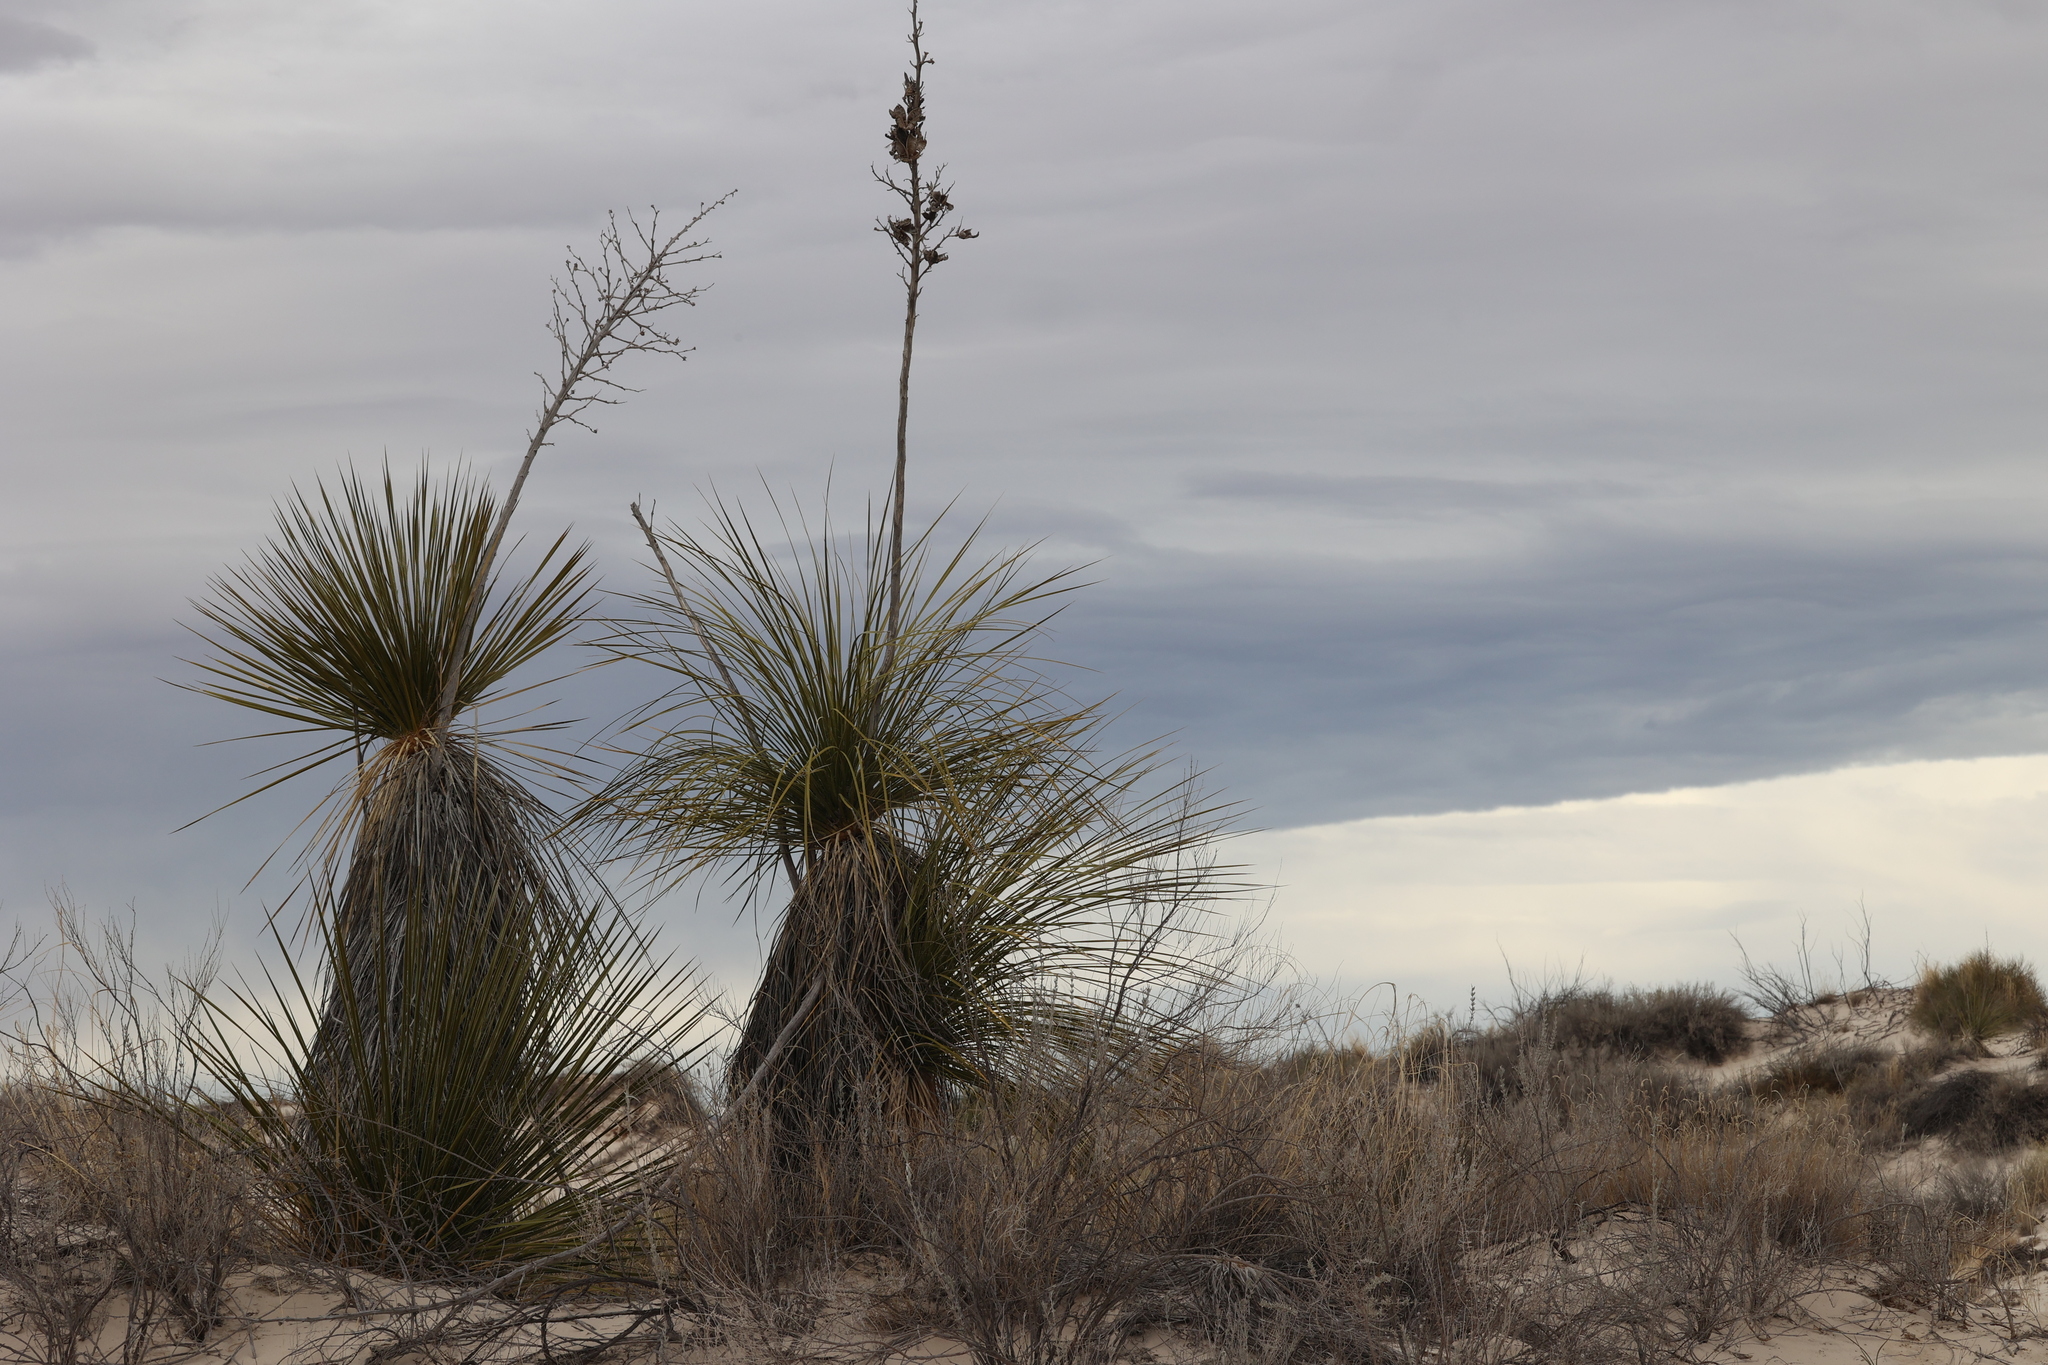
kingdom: Plantae
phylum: Tracheophyta
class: Liliopsida
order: Asparagales
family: Asparagaceae
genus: Yucca
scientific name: Yucca elata
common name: Palmella
